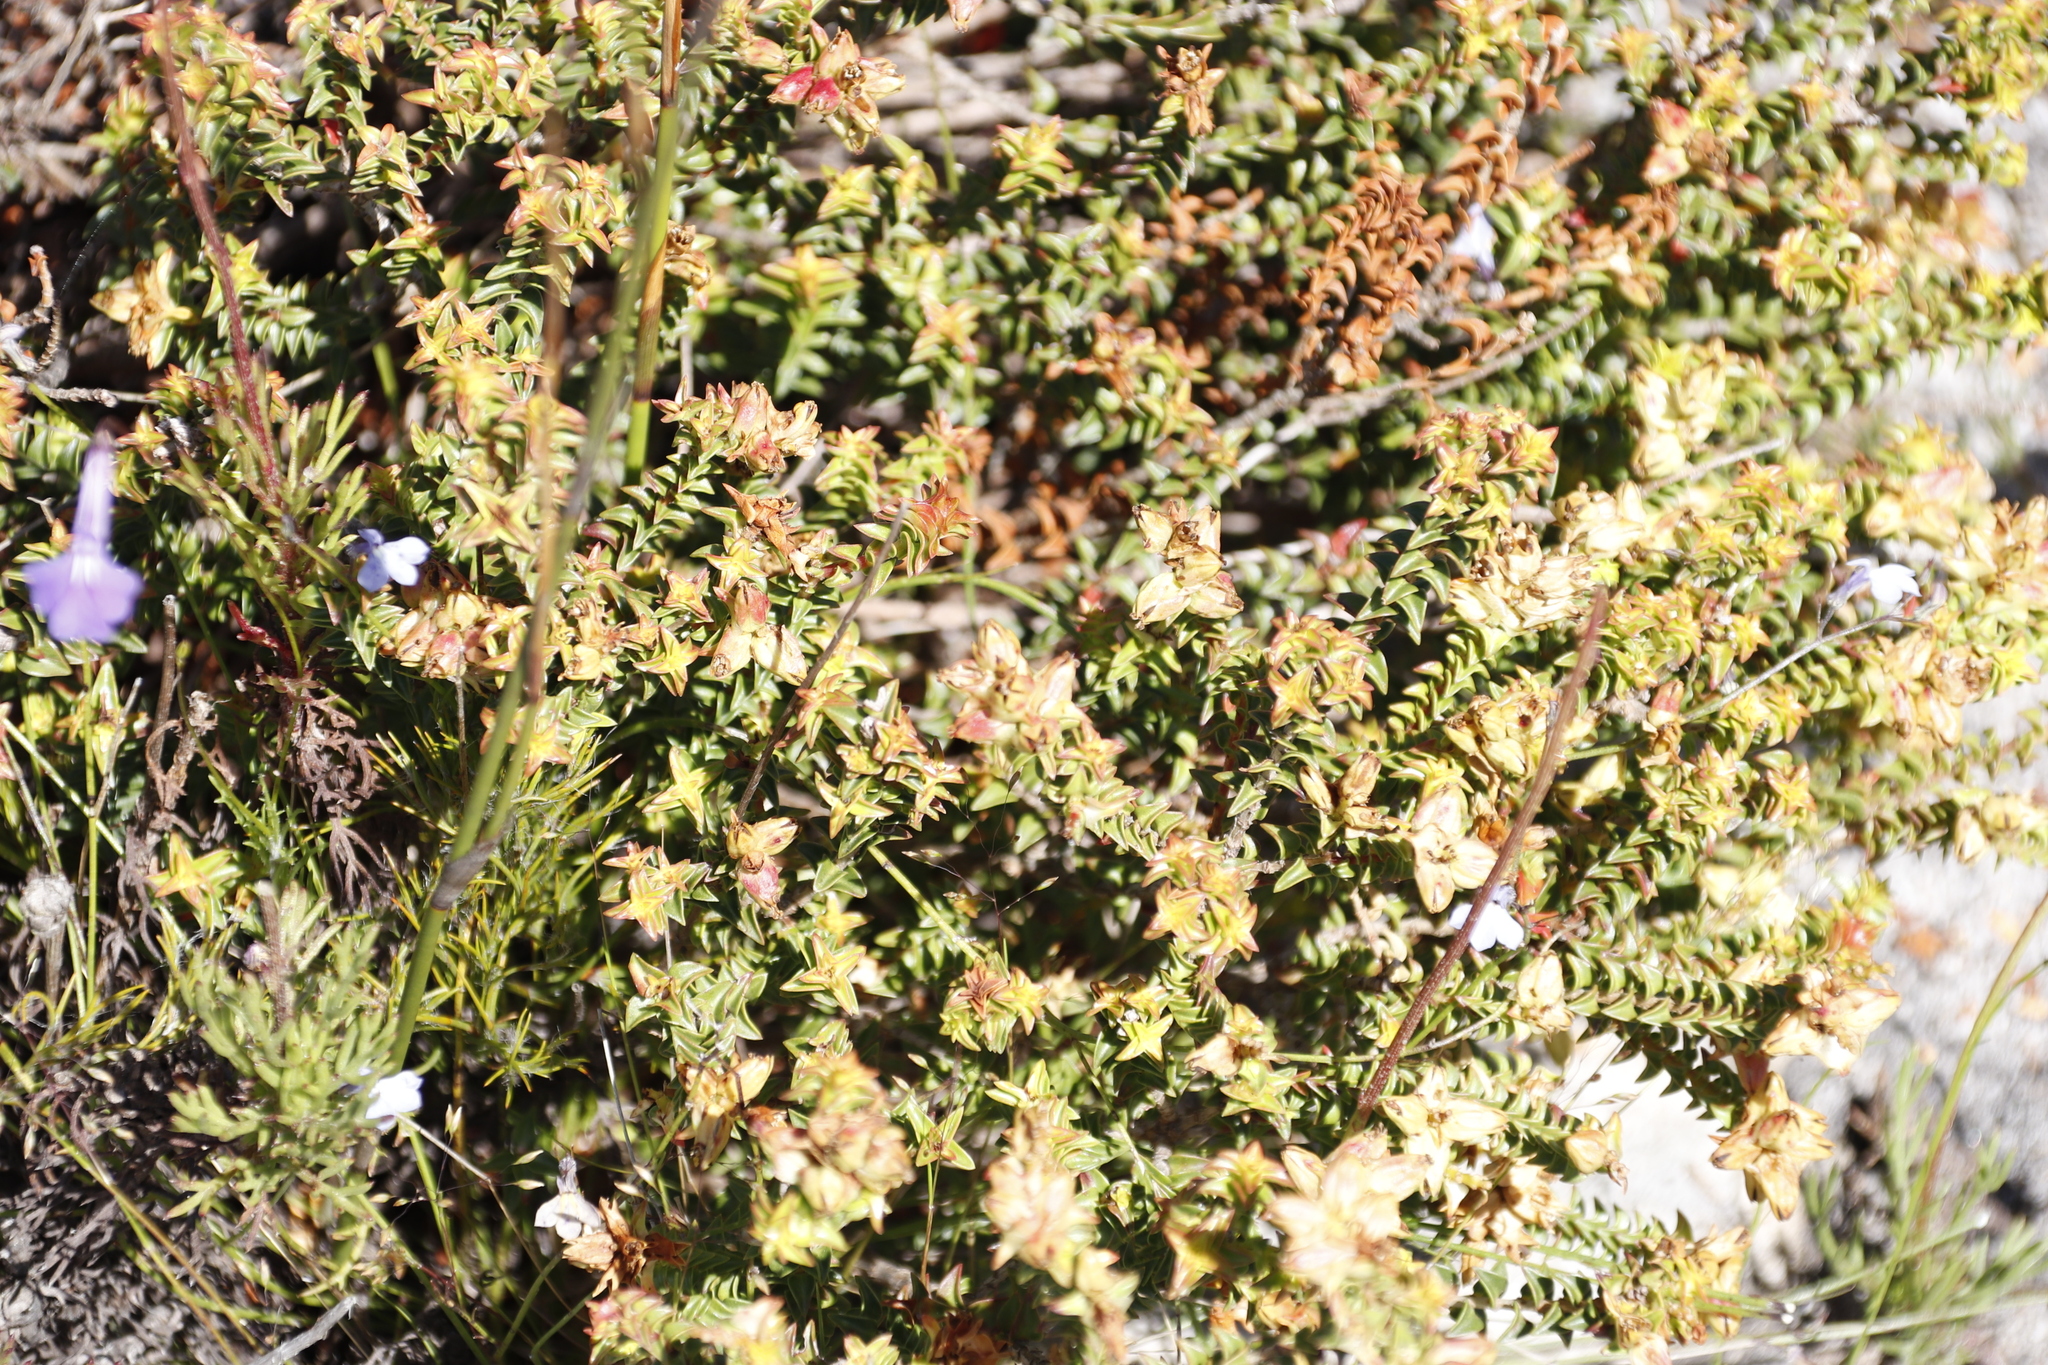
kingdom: Plantae
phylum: Tracheophyta
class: Magnoliopsida
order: Myrtales
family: Penaeaceae
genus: Penaea
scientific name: Penaea mucronata
